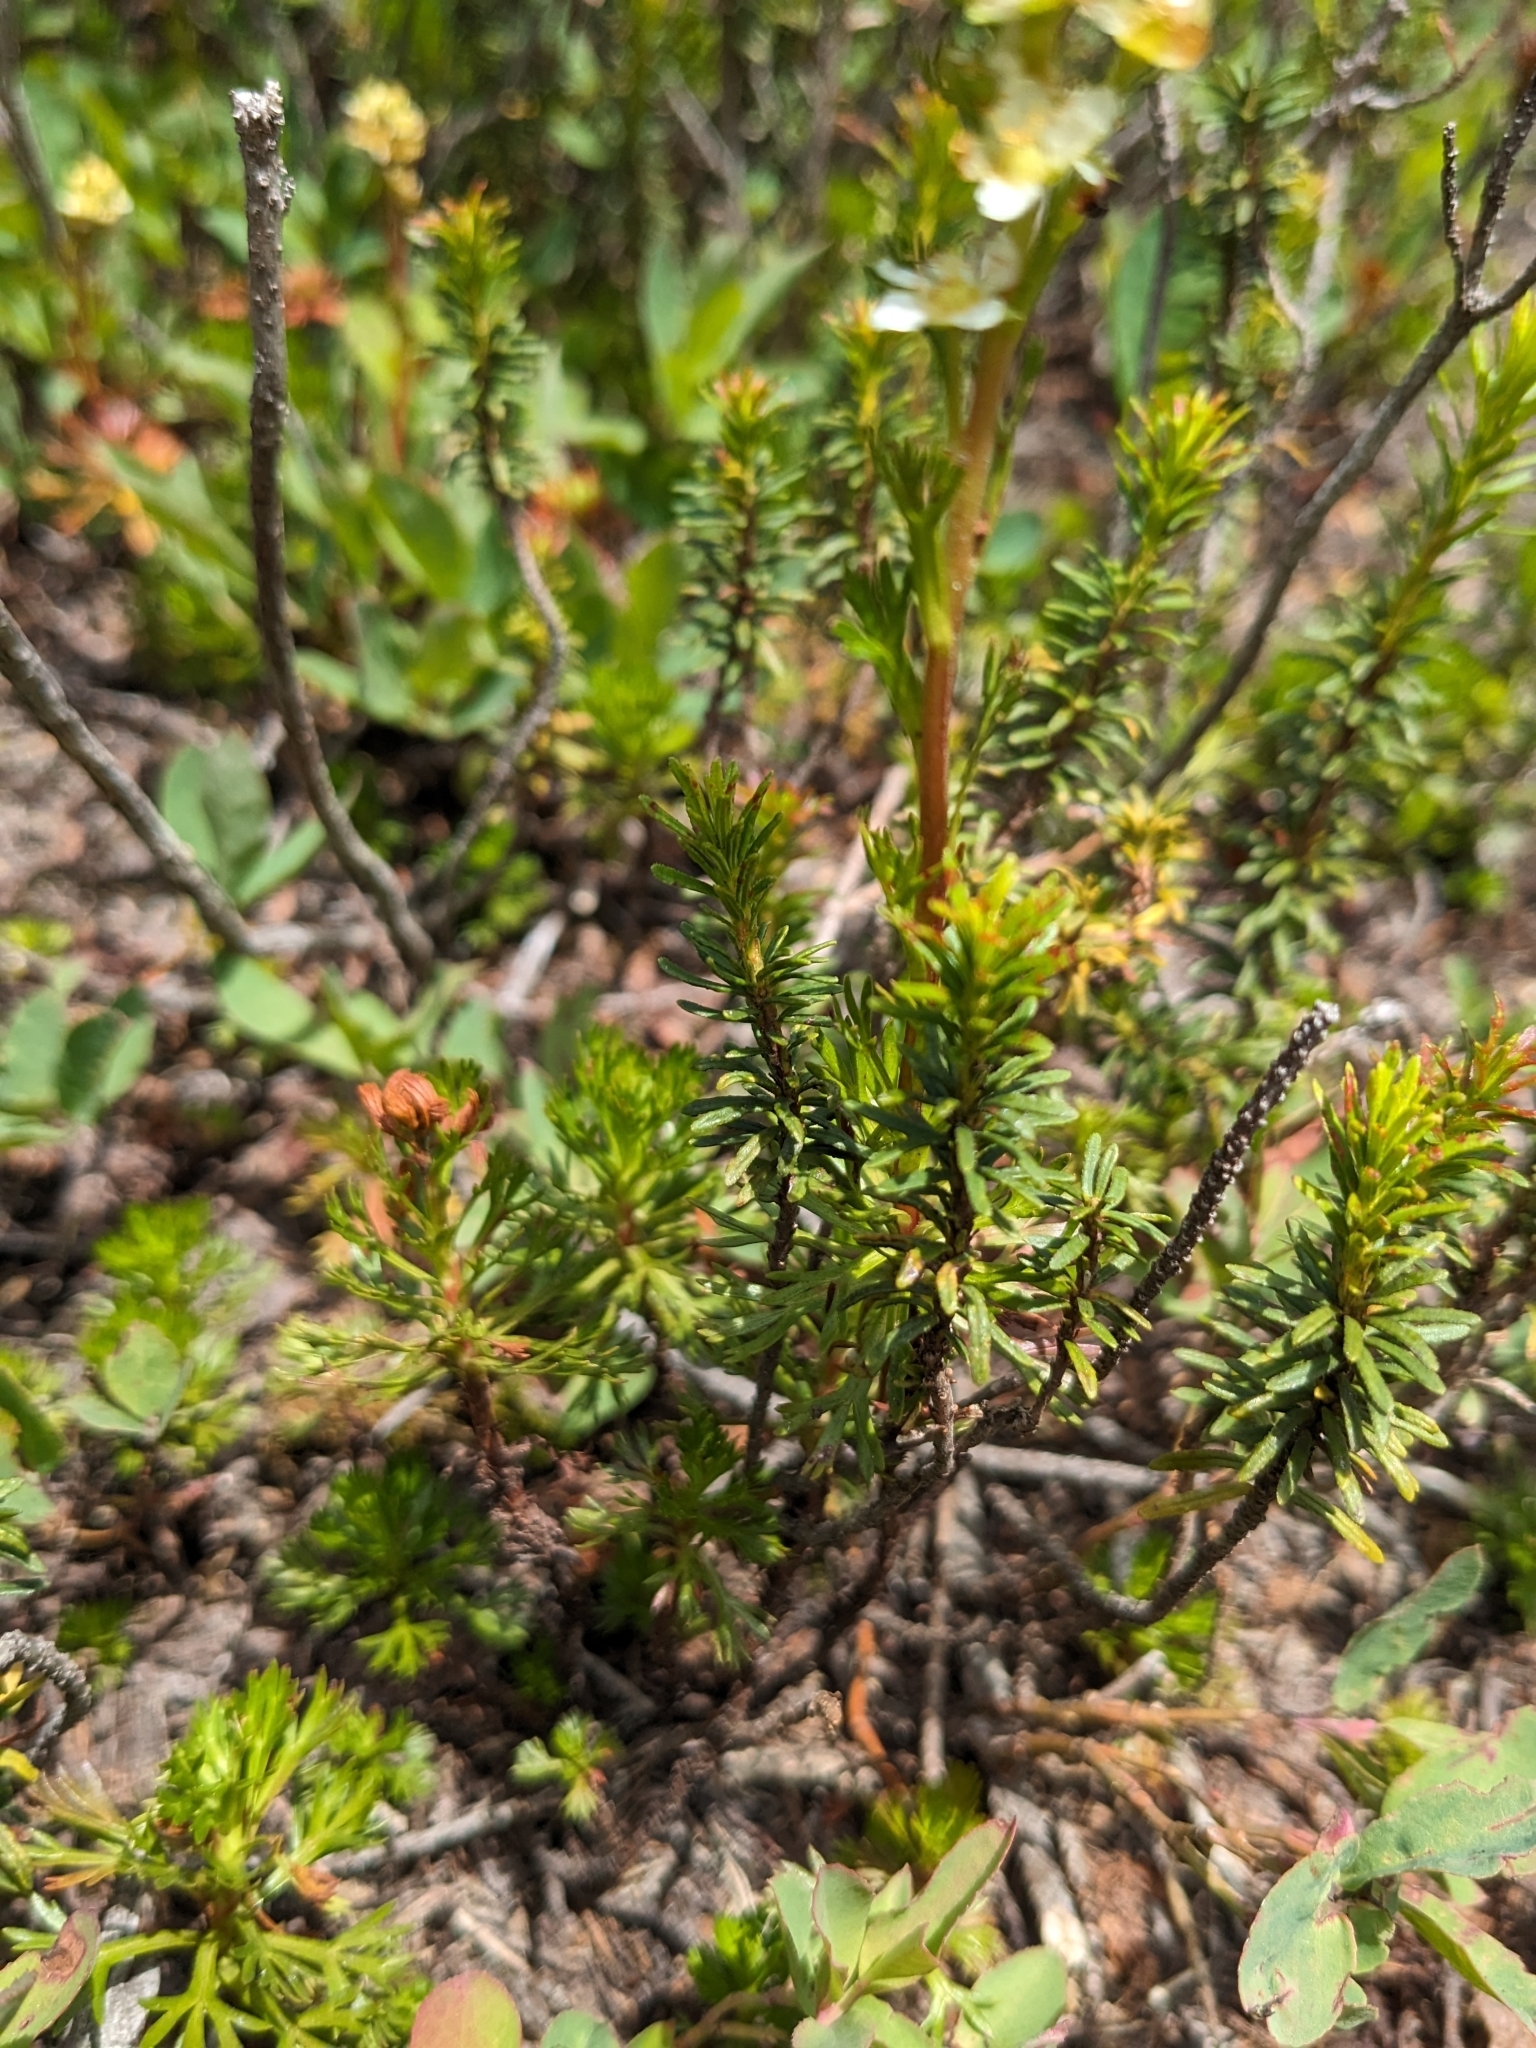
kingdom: Plantae
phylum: Tracheophyta
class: Magnoliopsida
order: Rosales
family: Rosaceae
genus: Luetkea
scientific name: Luetkea pectinata
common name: Partridgefoot
